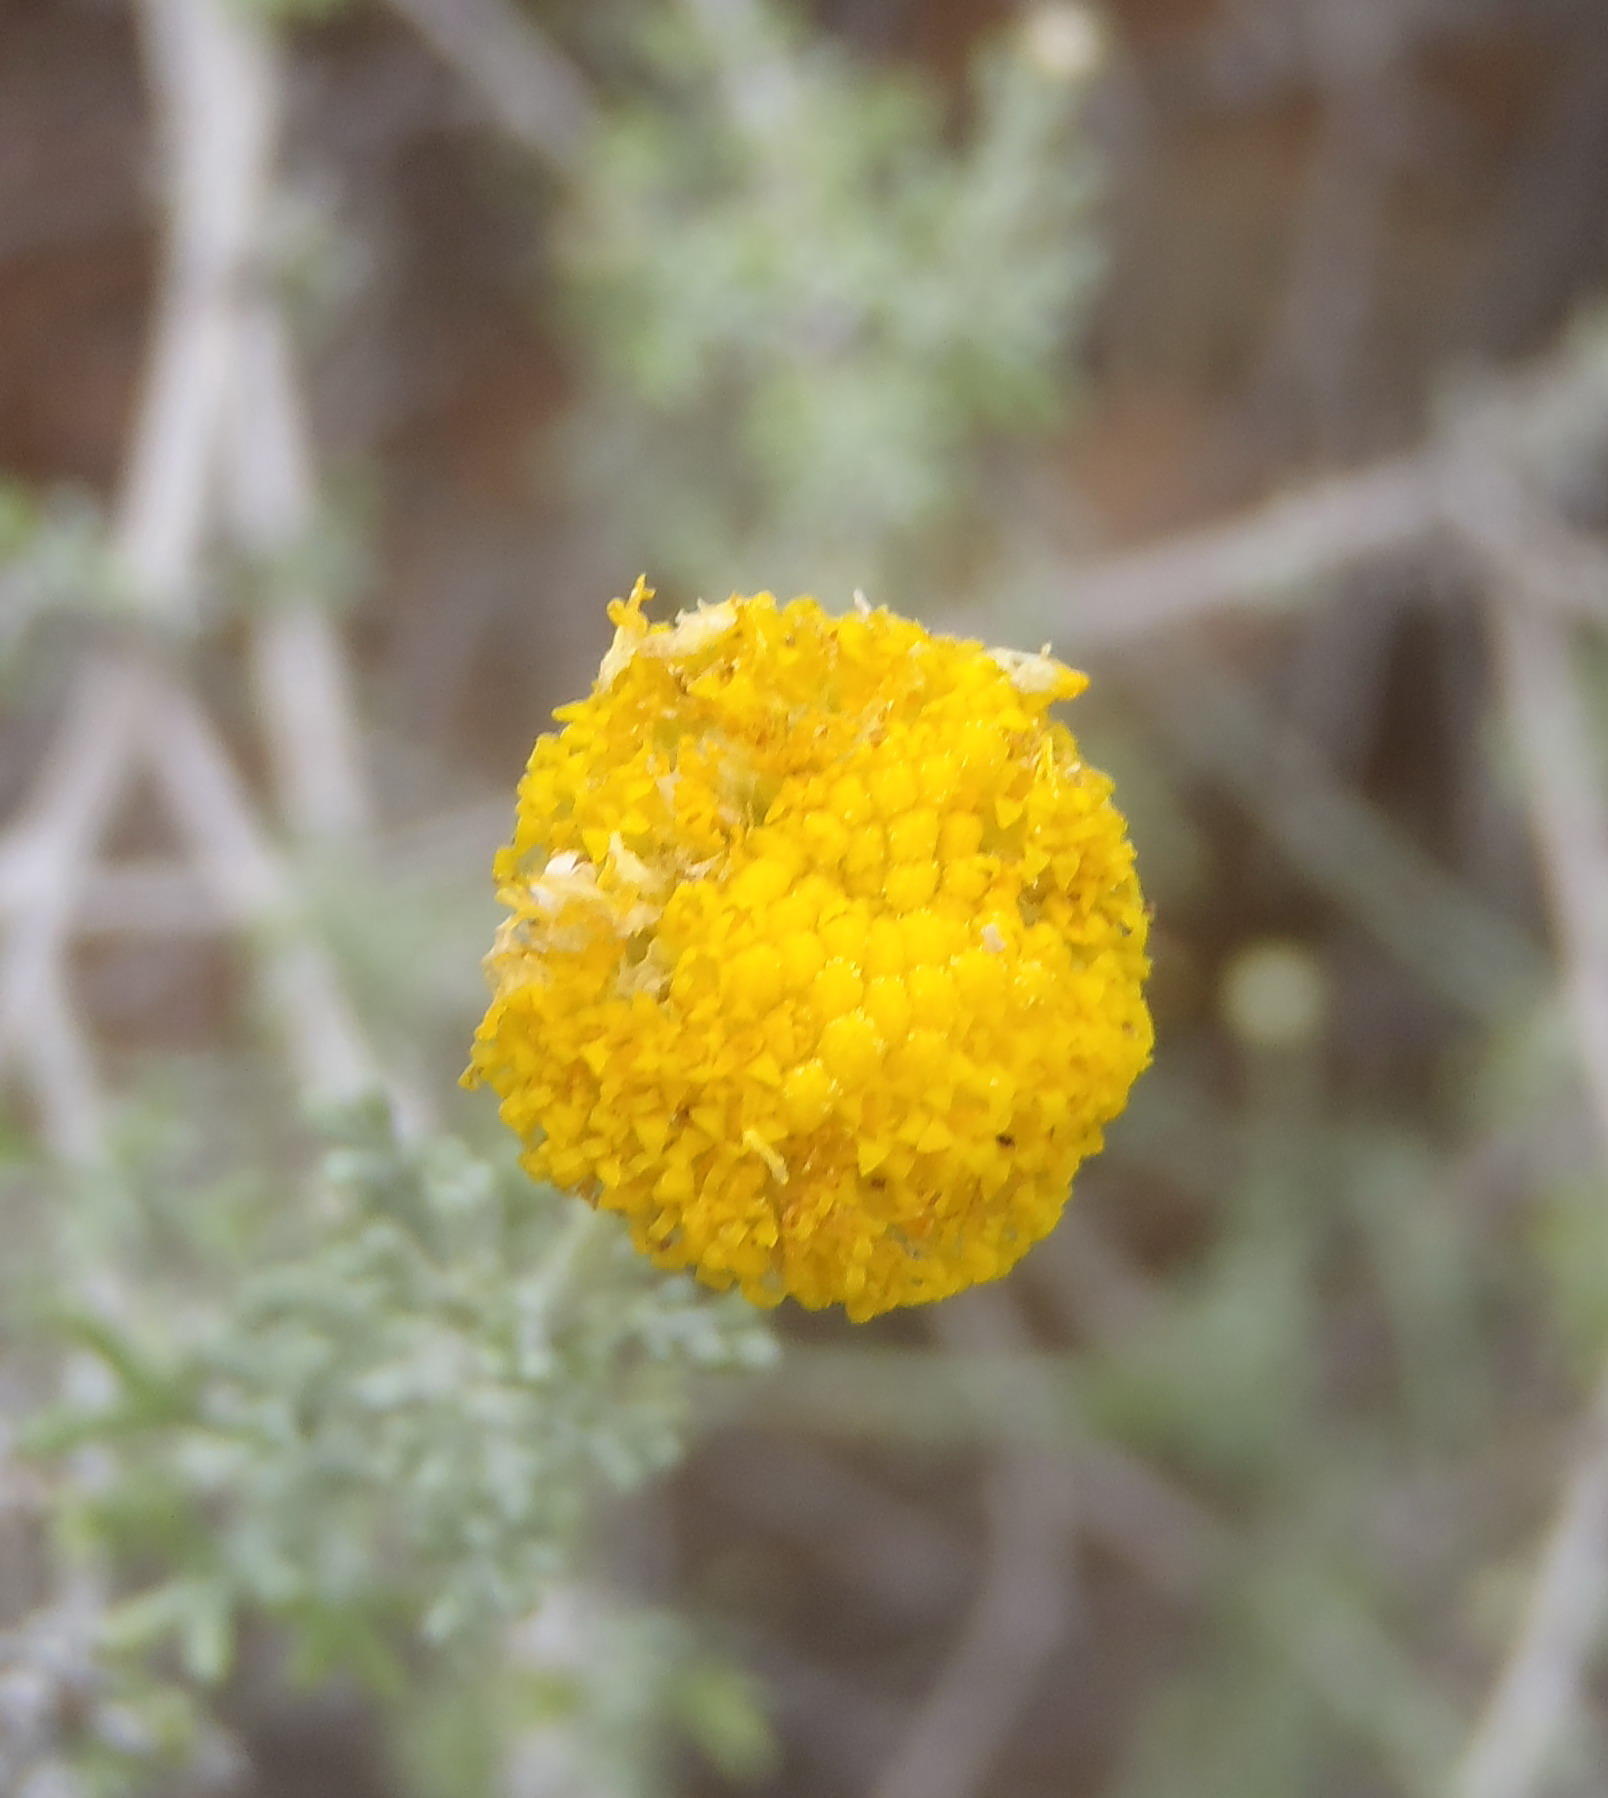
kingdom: Plantae
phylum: Tracheophyta
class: Magnoliopsida
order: Asterales
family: Asteraceae
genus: Pentzia
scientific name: Pentzia incana
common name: African sheepbush
